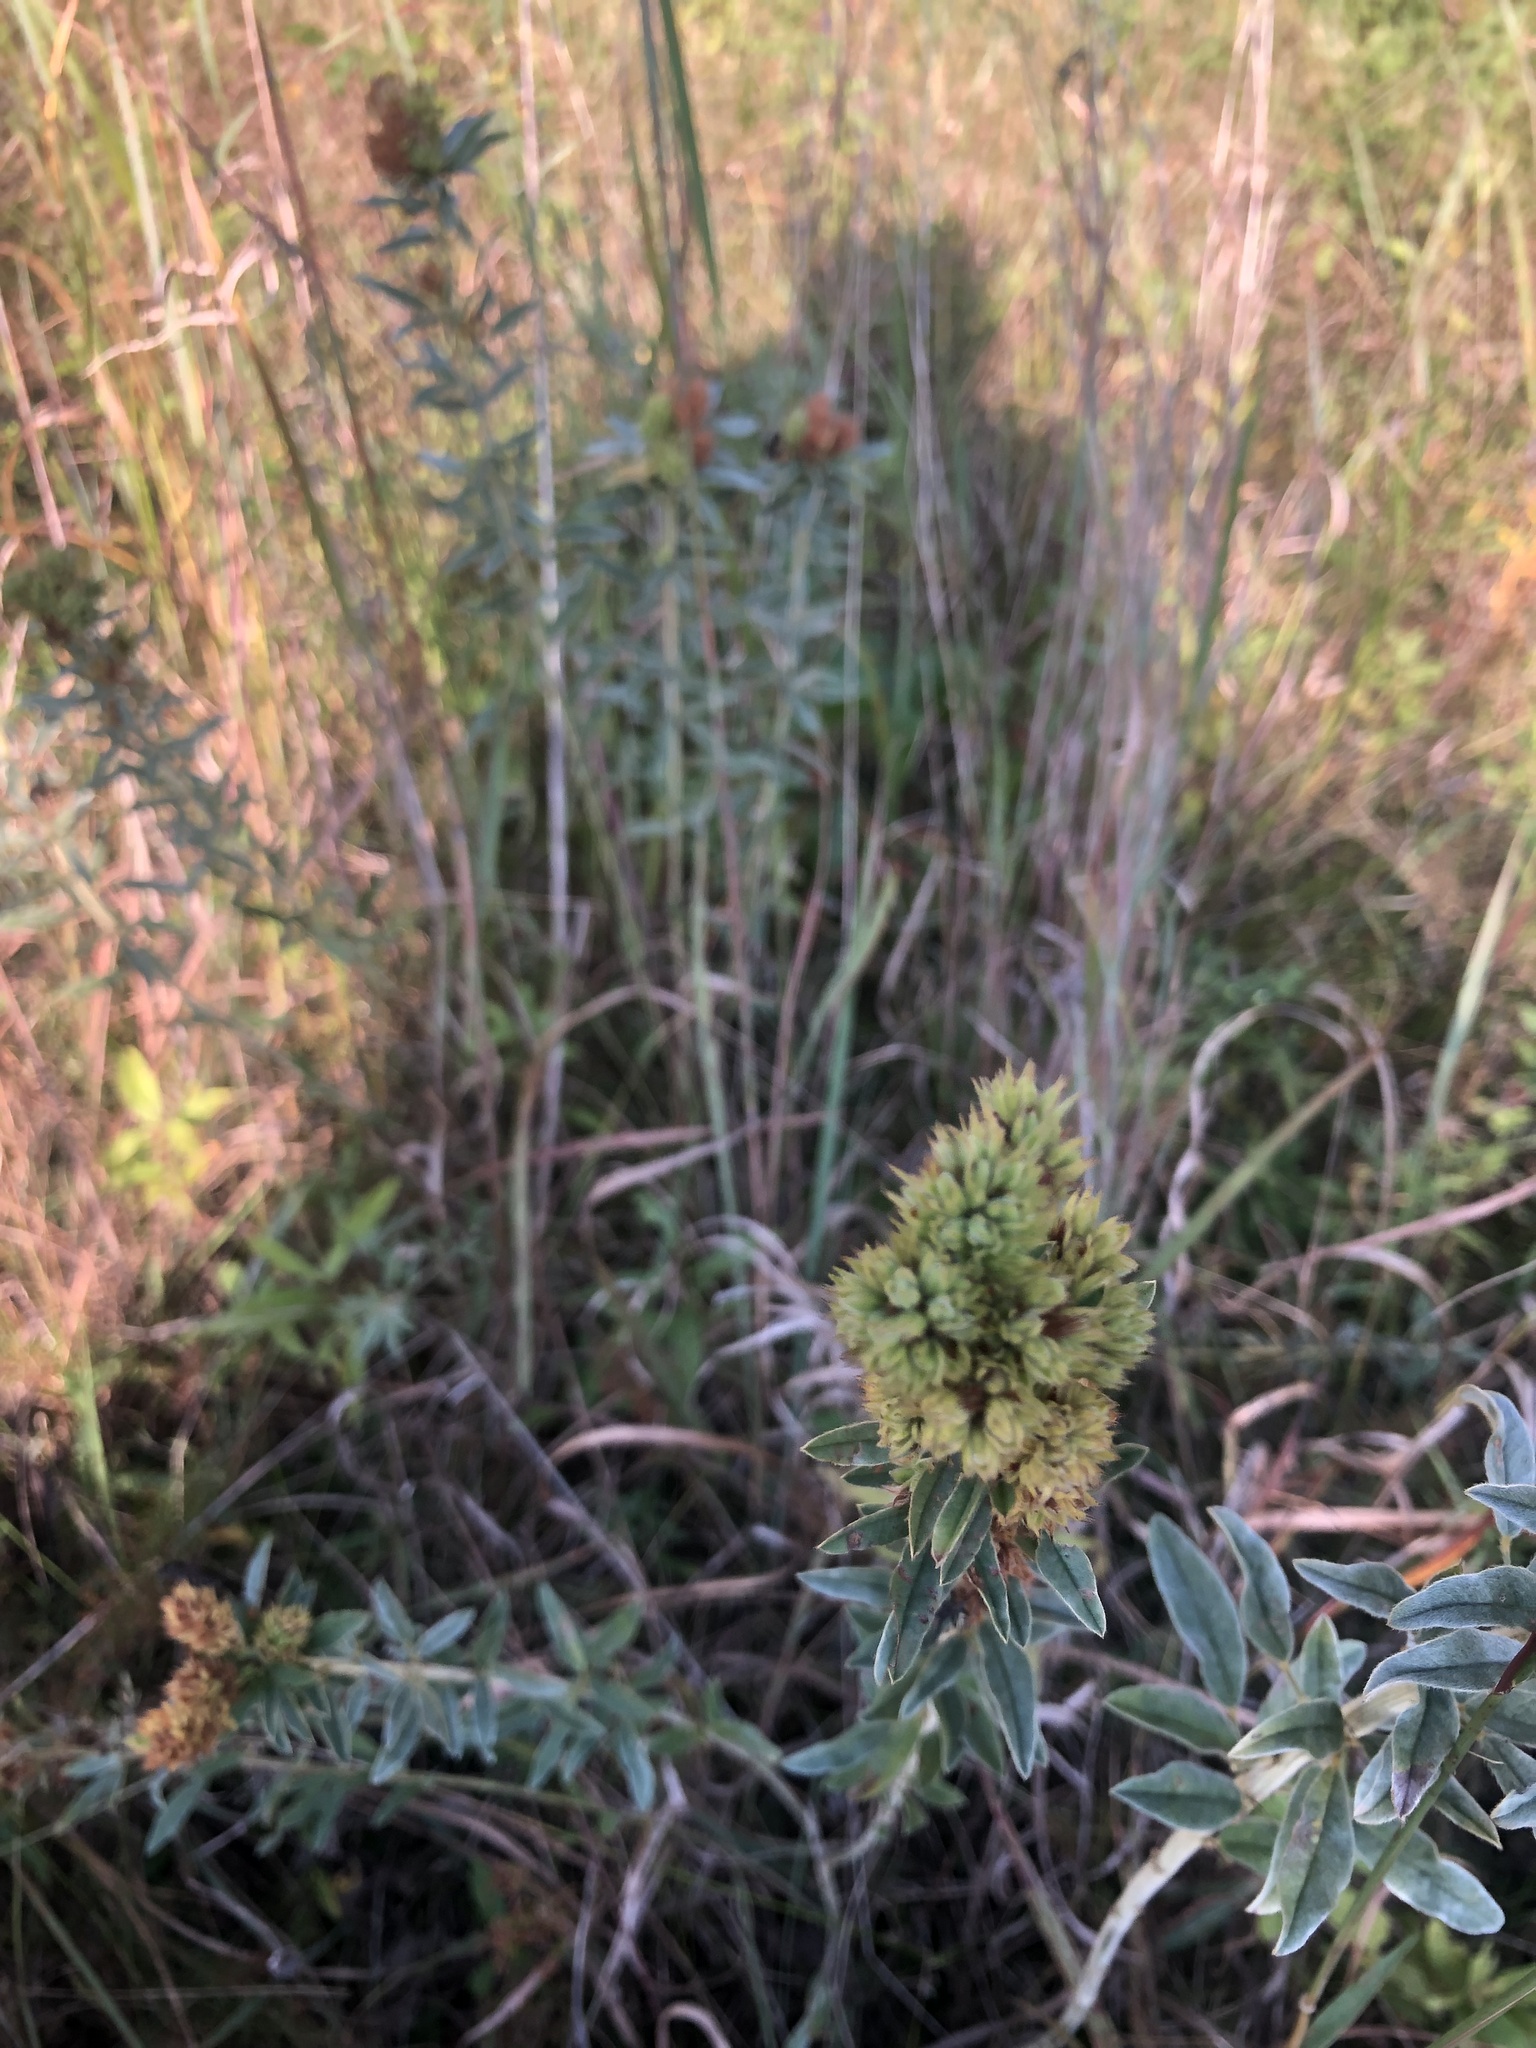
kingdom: Plantae
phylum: Tracheophyta
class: Magnoliopsida
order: Fabales
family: Fabaceae
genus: Lespedeza
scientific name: Lespedeza capitata
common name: Dusty clover
